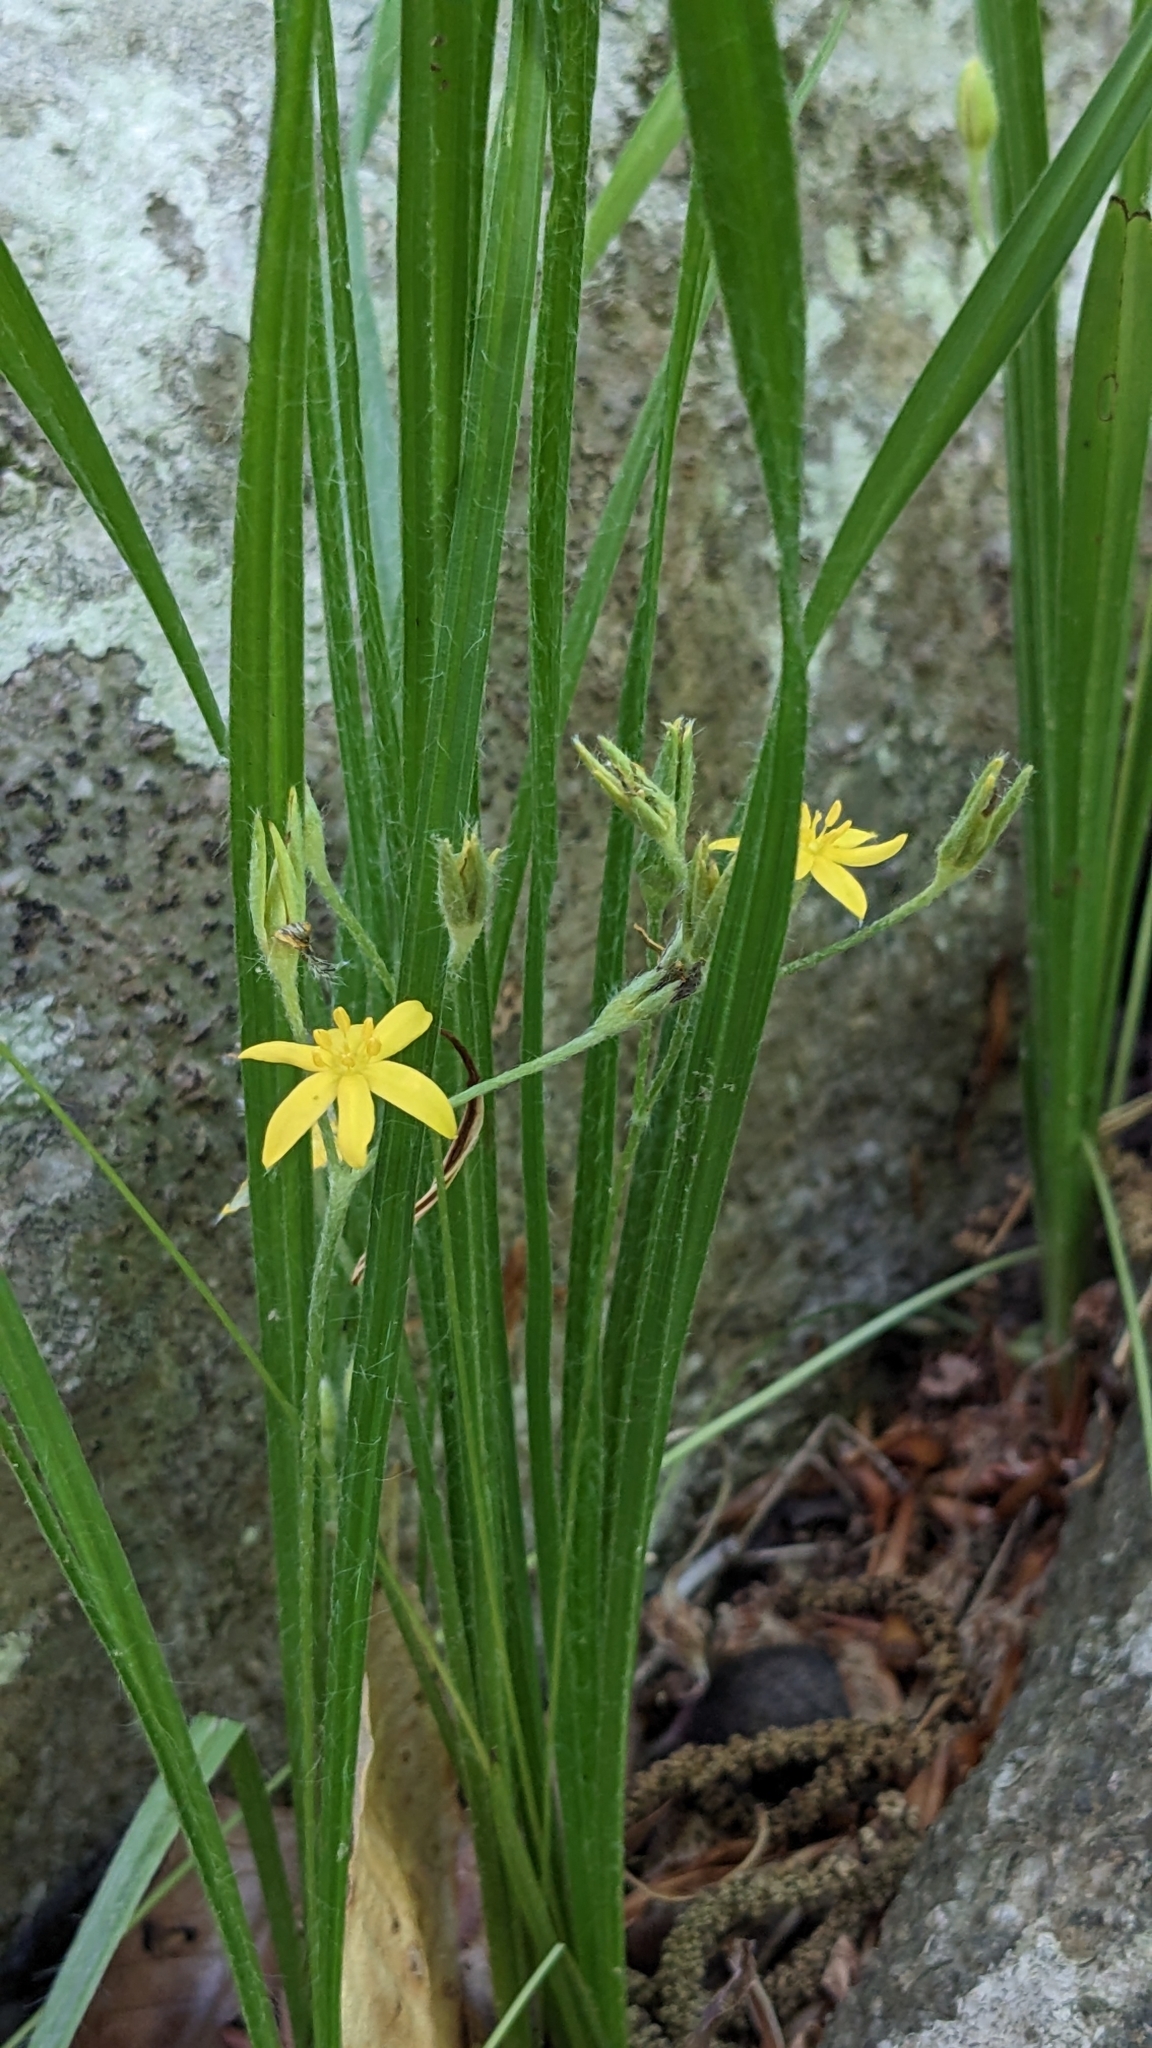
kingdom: Plantae
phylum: Tracheophyta
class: Liliopsida
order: Asparagales
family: Hypoxidaceae
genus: Hypoxis
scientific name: Hypoxis hirsuta
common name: Common goldstar
